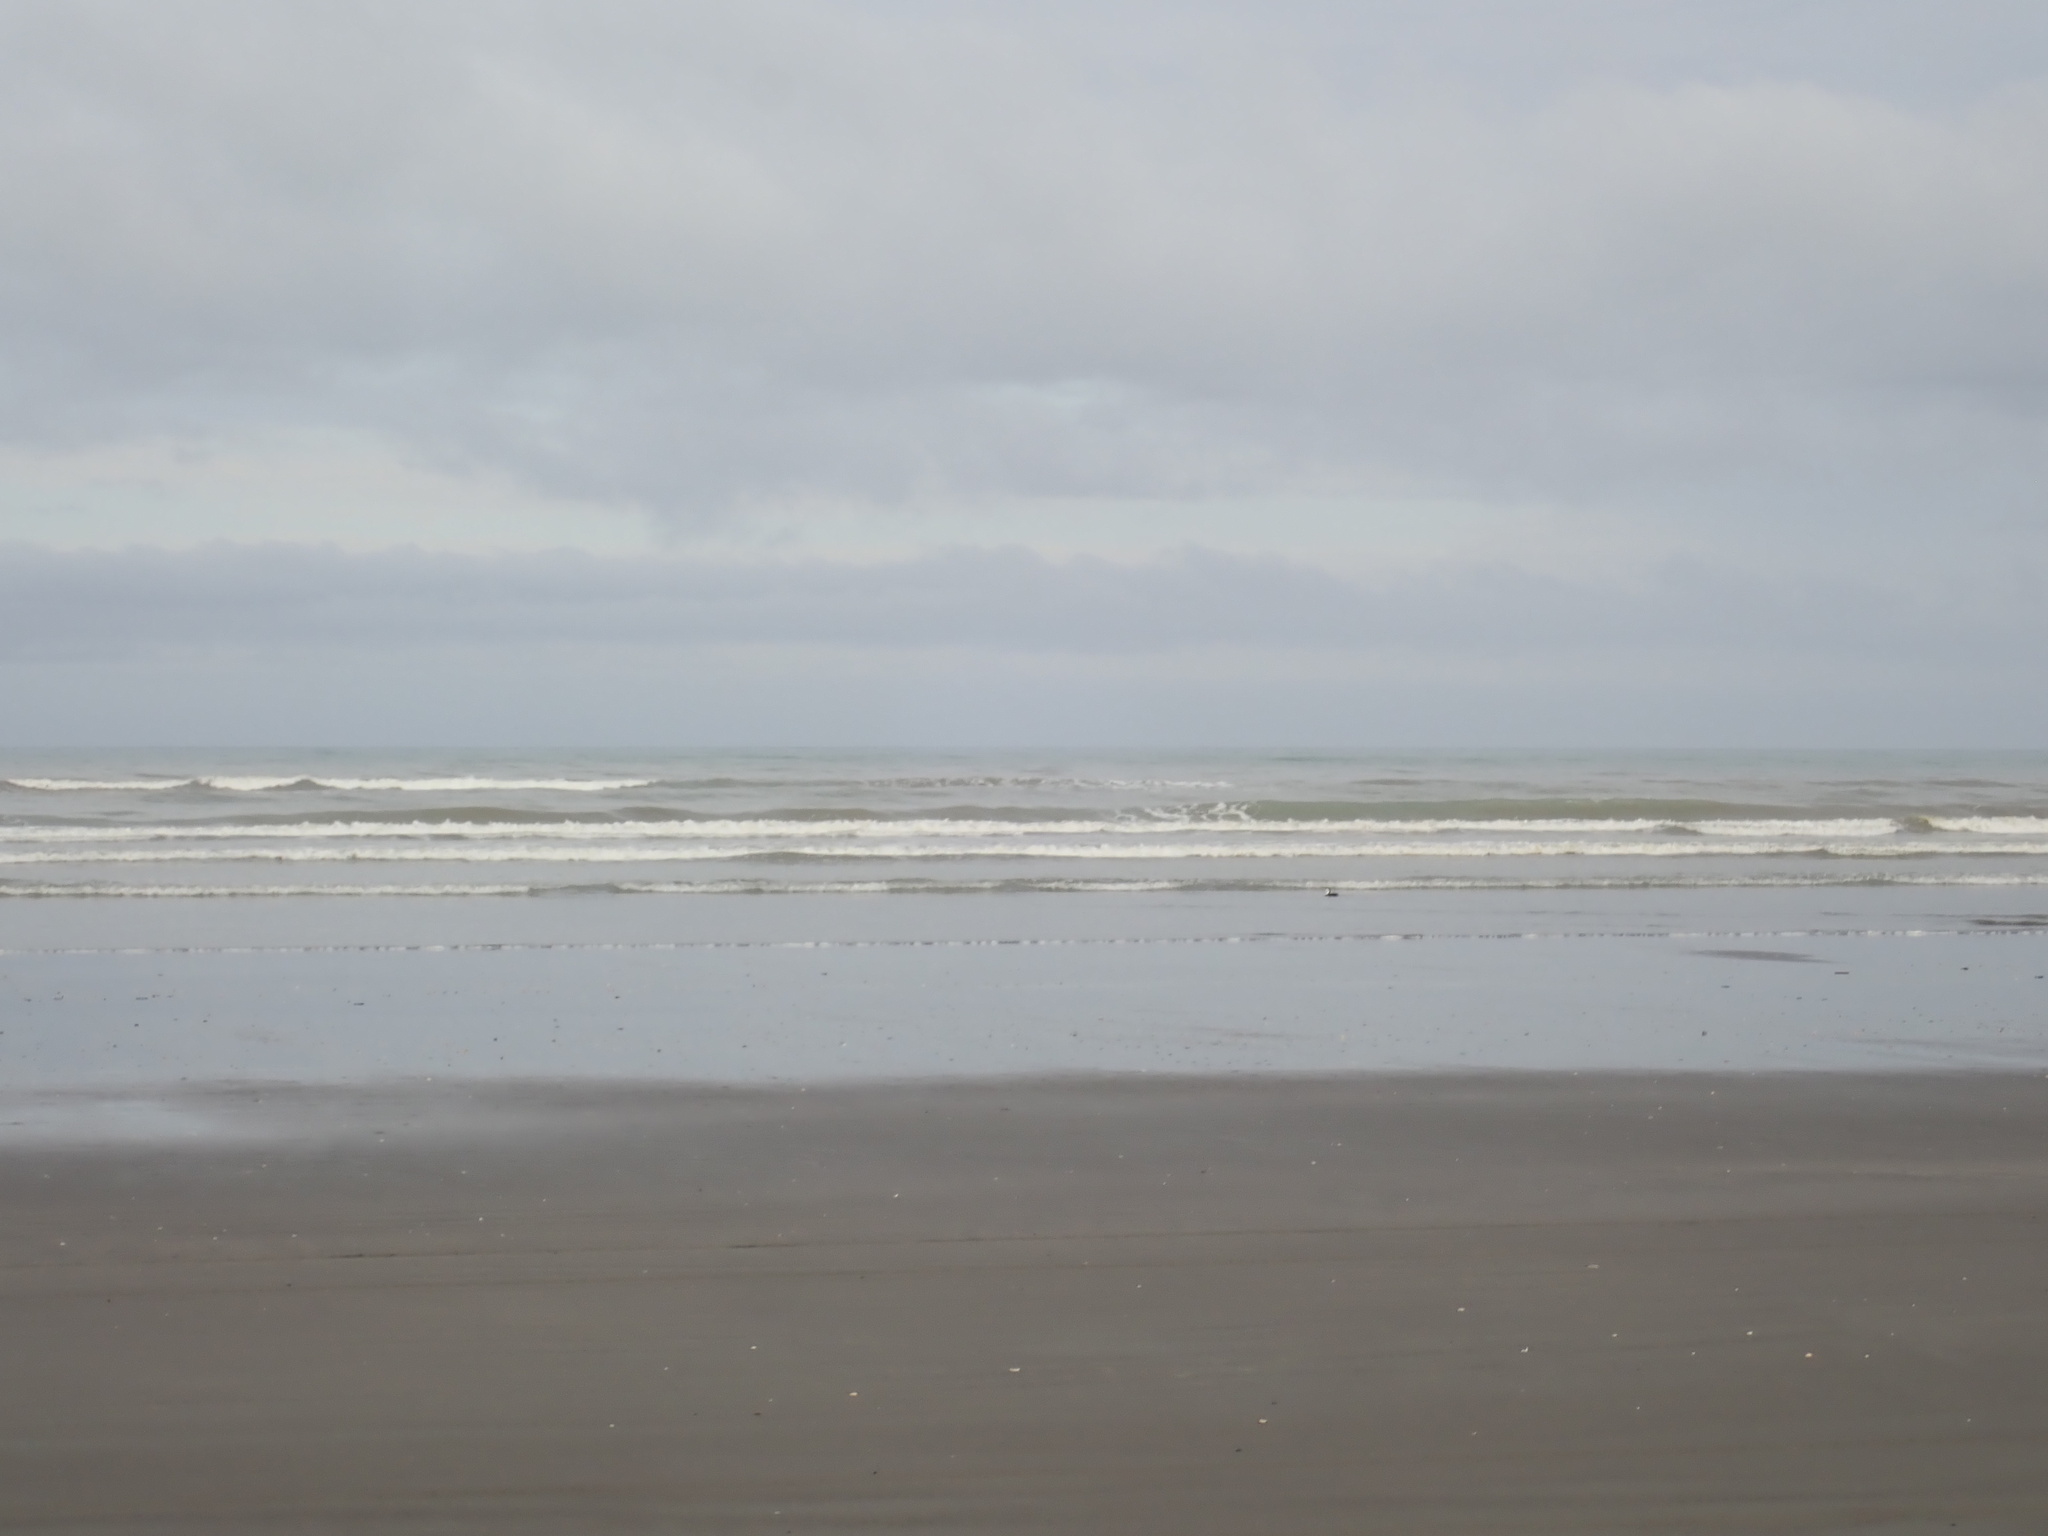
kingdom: Animalia
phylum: Chordata
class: Aves
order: Suliformes
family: Phalacrocoracidae
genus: Phalacrocorax
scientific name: Phalacrocorax varius
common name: Pied cormorant
